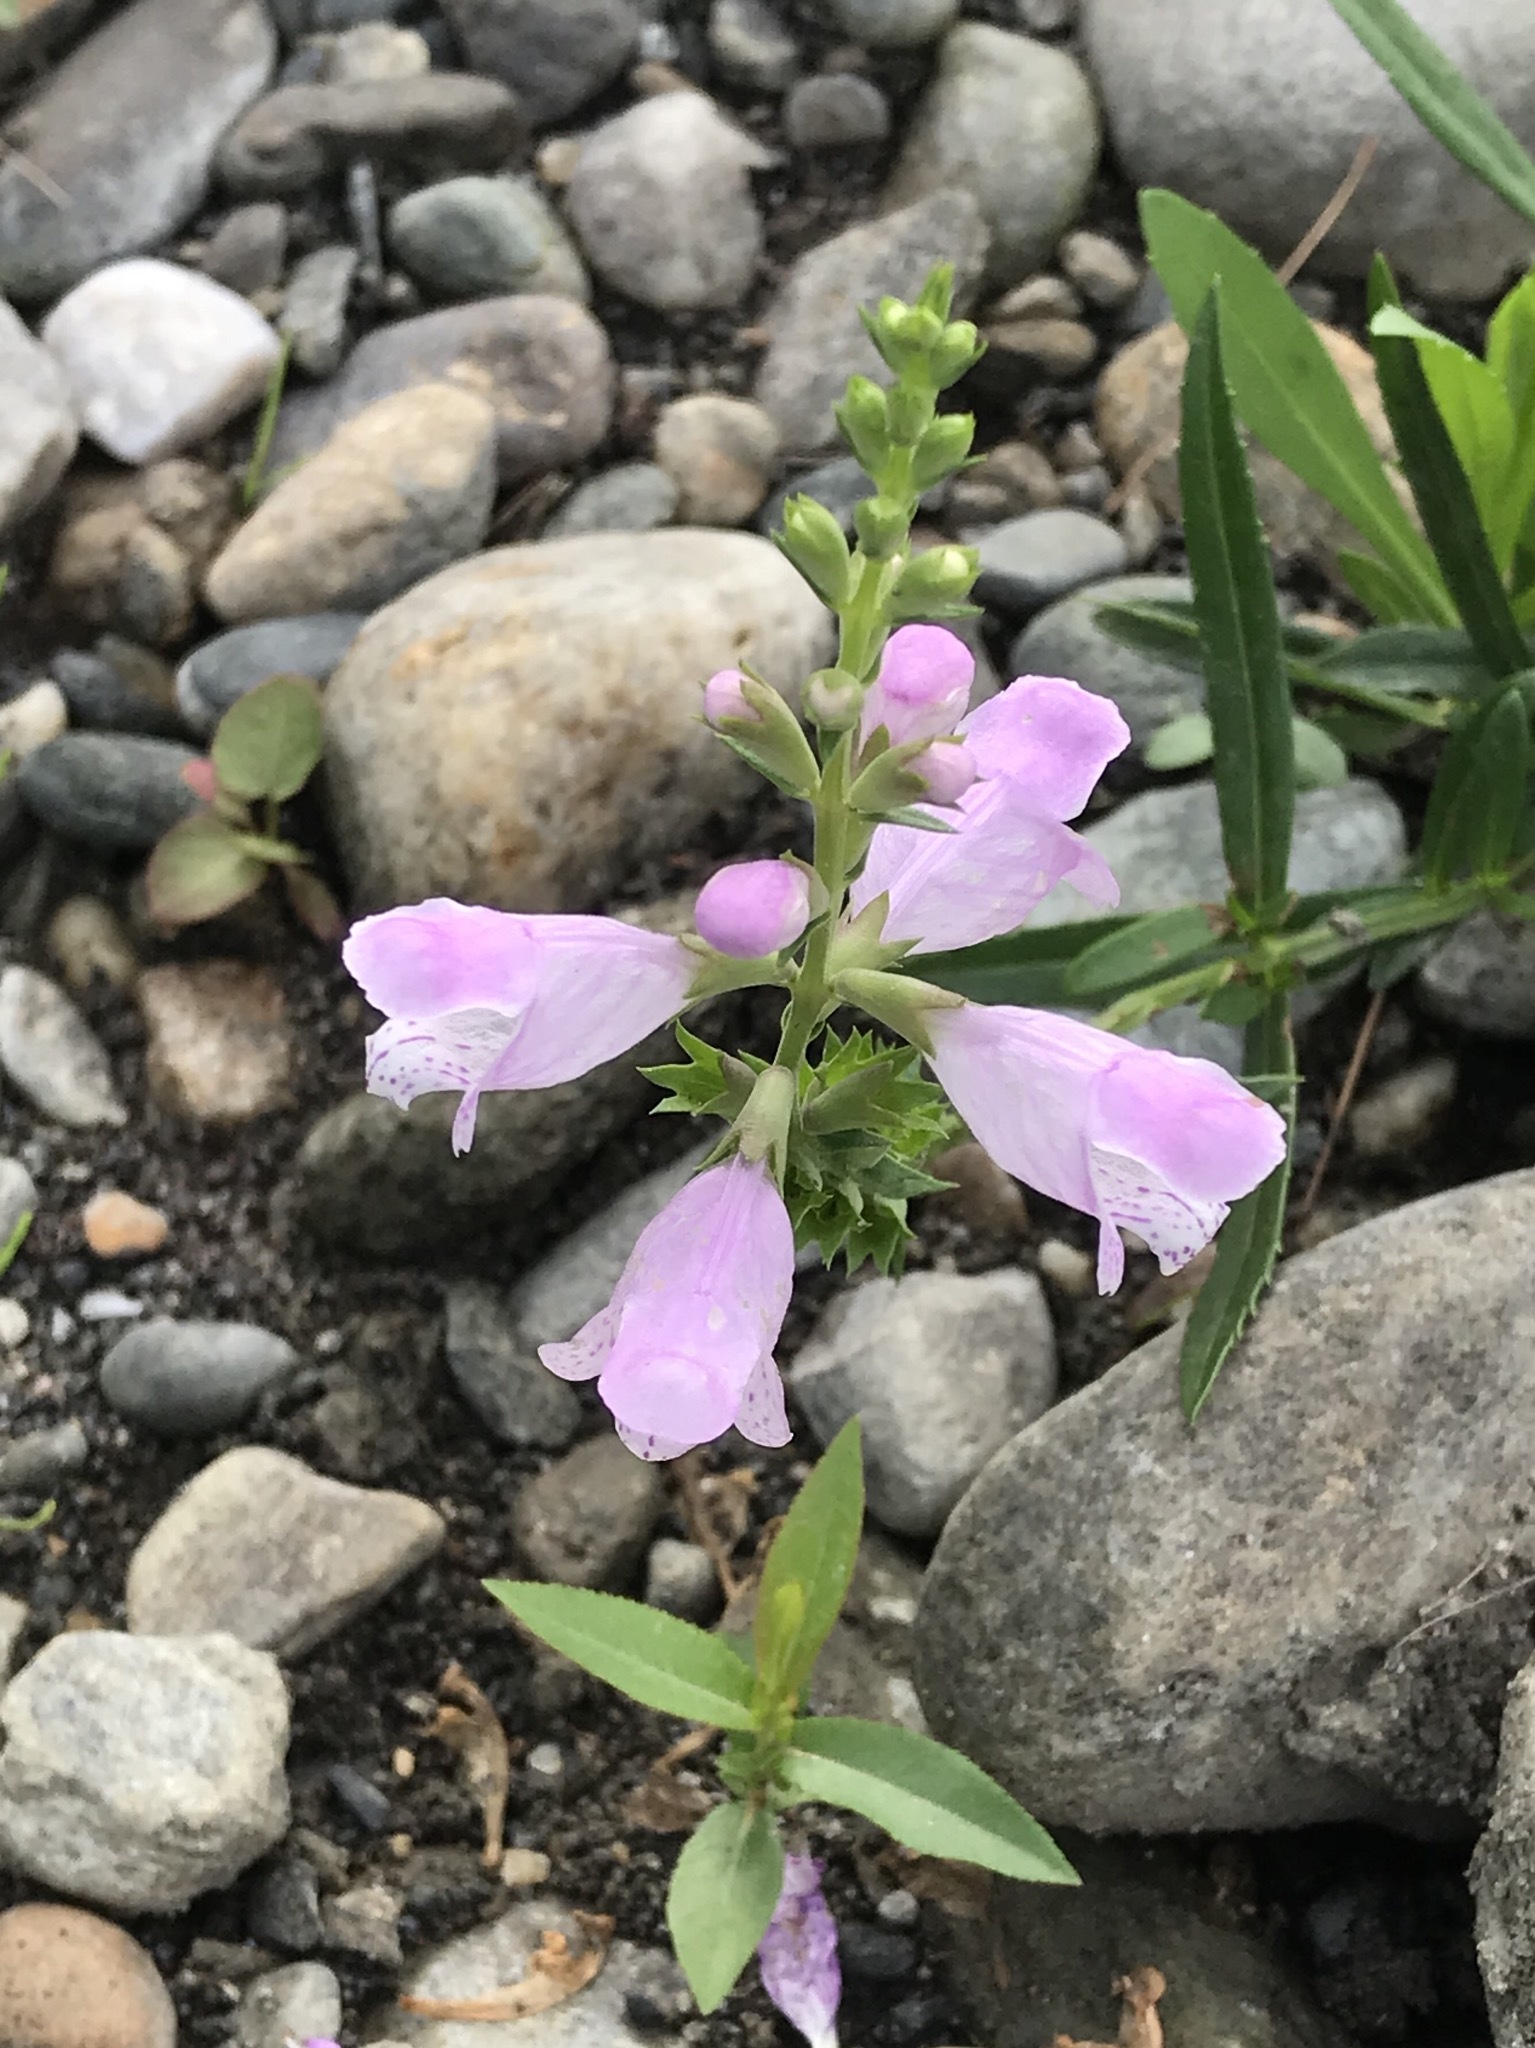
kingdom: Plantae
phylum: Tracheophyta
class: Magnoliopsida
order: Lamiales
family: Lamiaceae
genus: Physostegia
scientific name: Physostegia virginiana
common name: Obedient-plant
